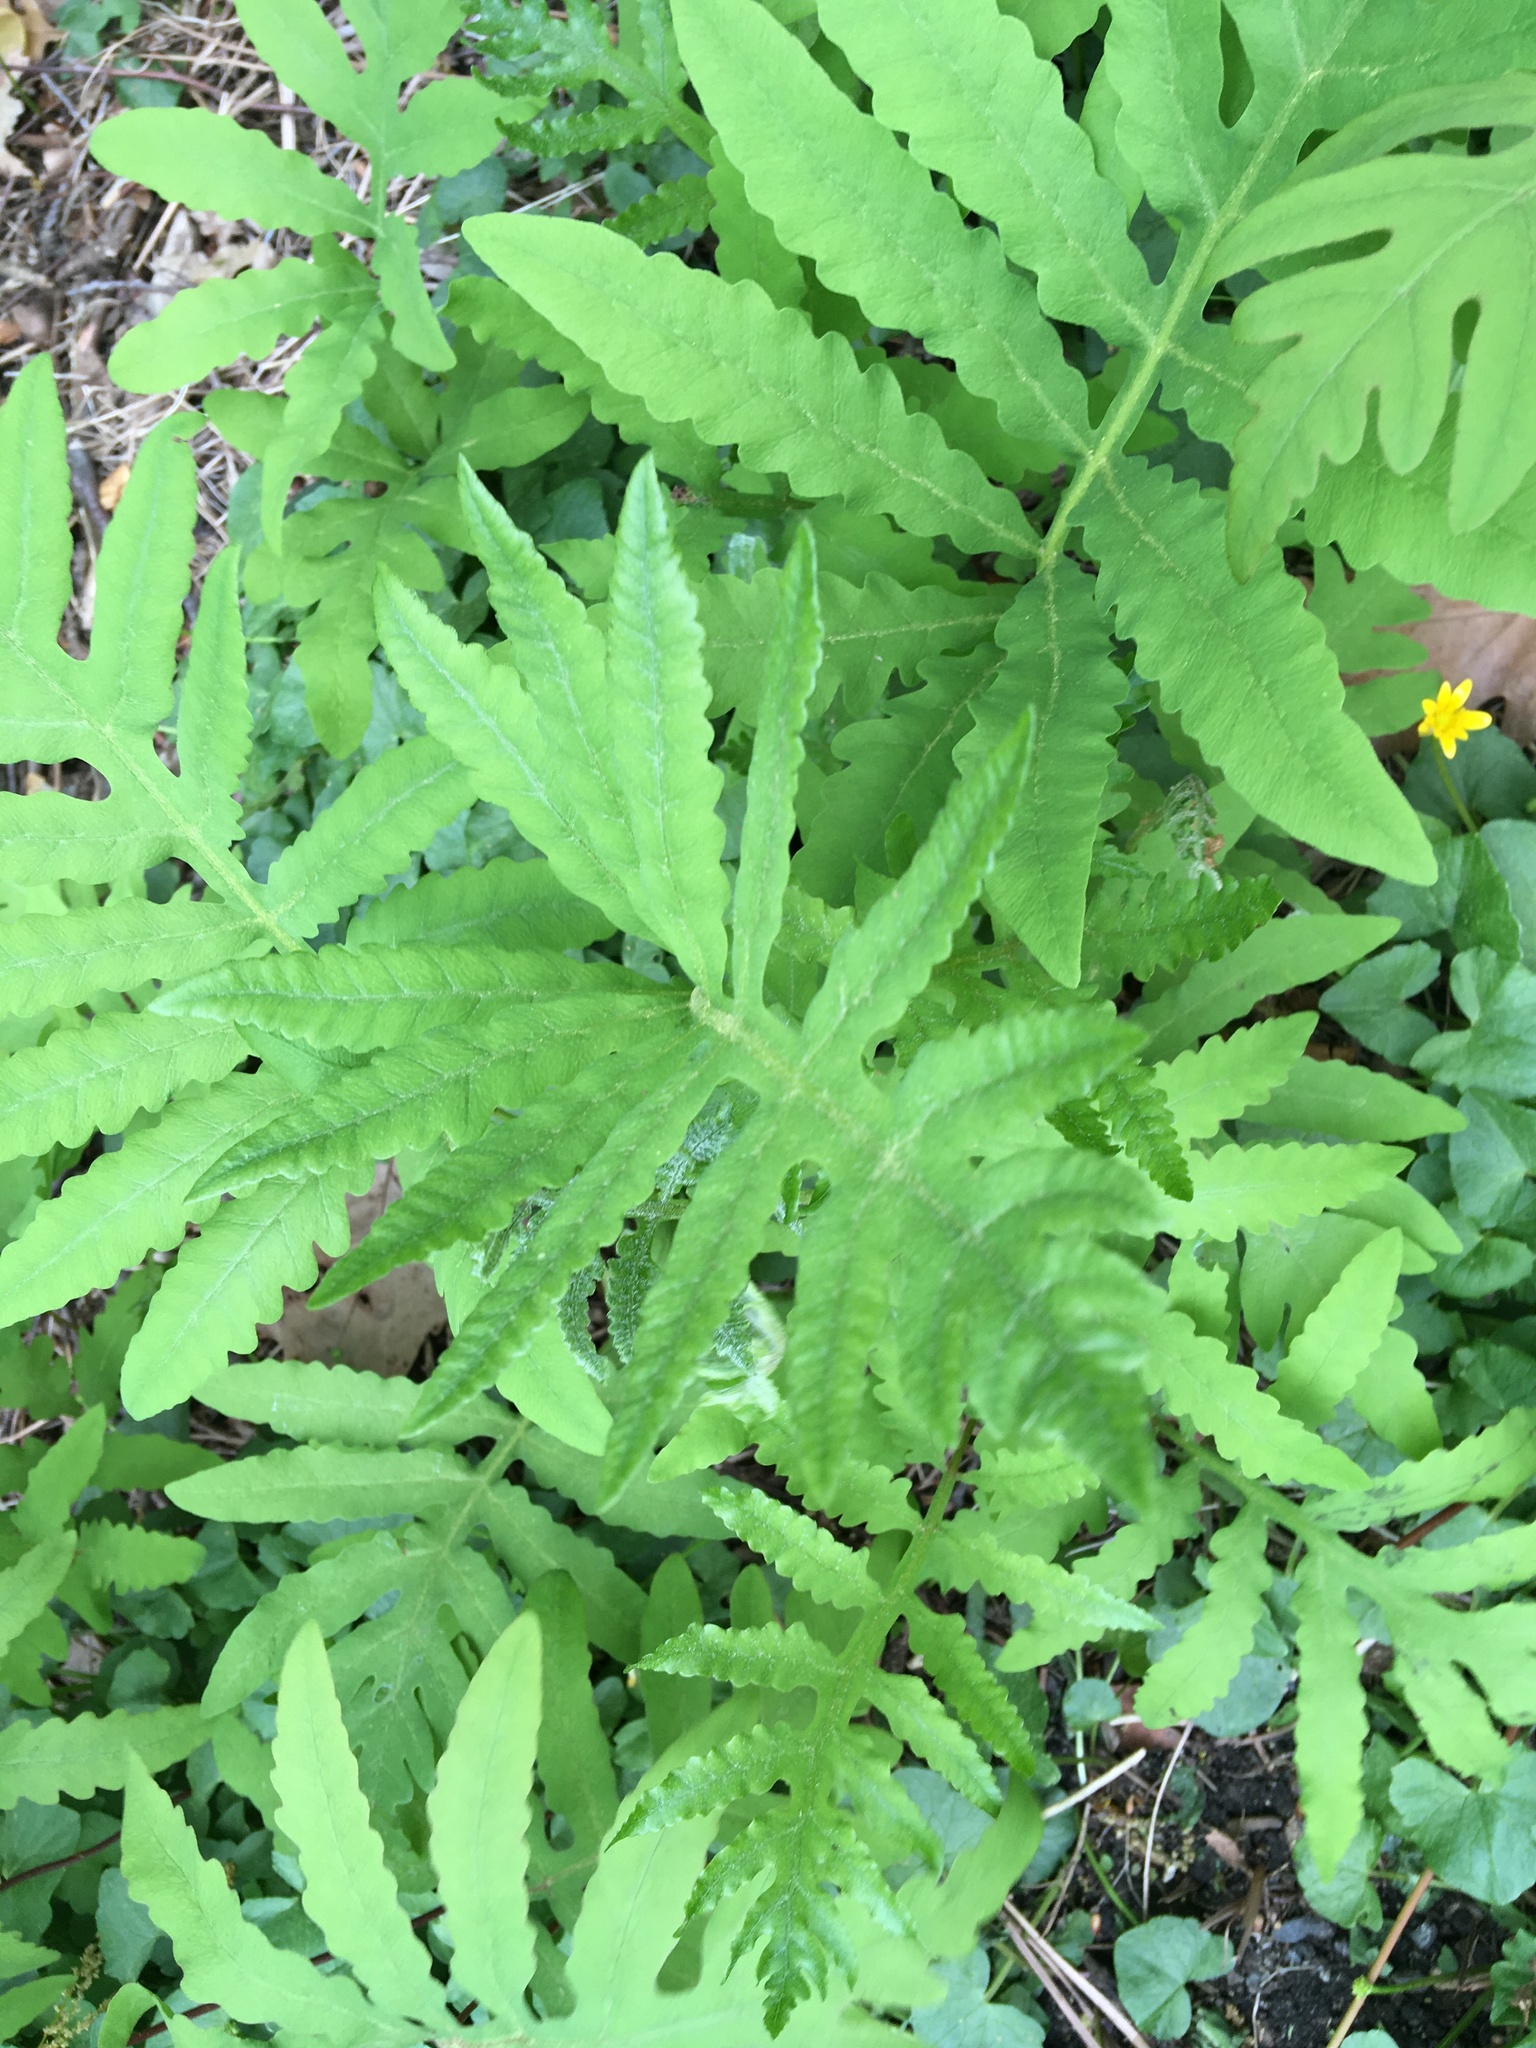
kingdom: Plantae
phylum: Tracheophyta
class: Polypodiopsida
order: Polypodiales
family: Onocleaceae
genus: Onoclea
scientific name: Onoclea sensibilis
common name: Sensitive fern
